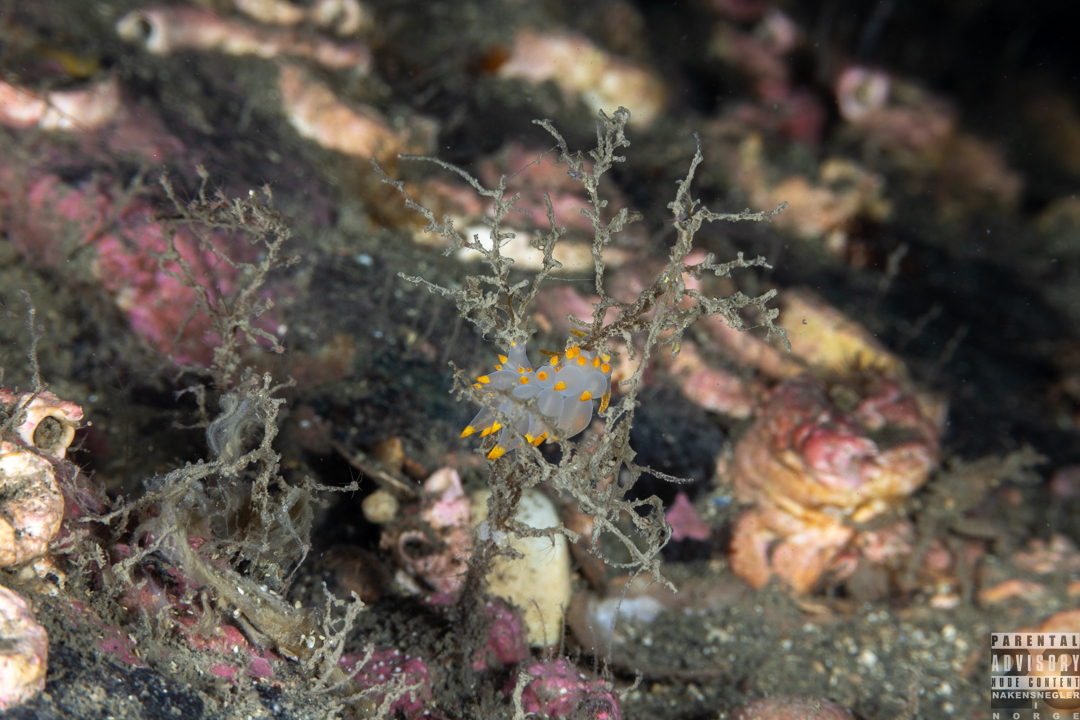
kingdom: Animalia
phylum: Mollusca
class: Gastropoda
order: Nudibranchia
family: Eubranchidae
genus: Amphorina
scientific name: Amphorina farrani
